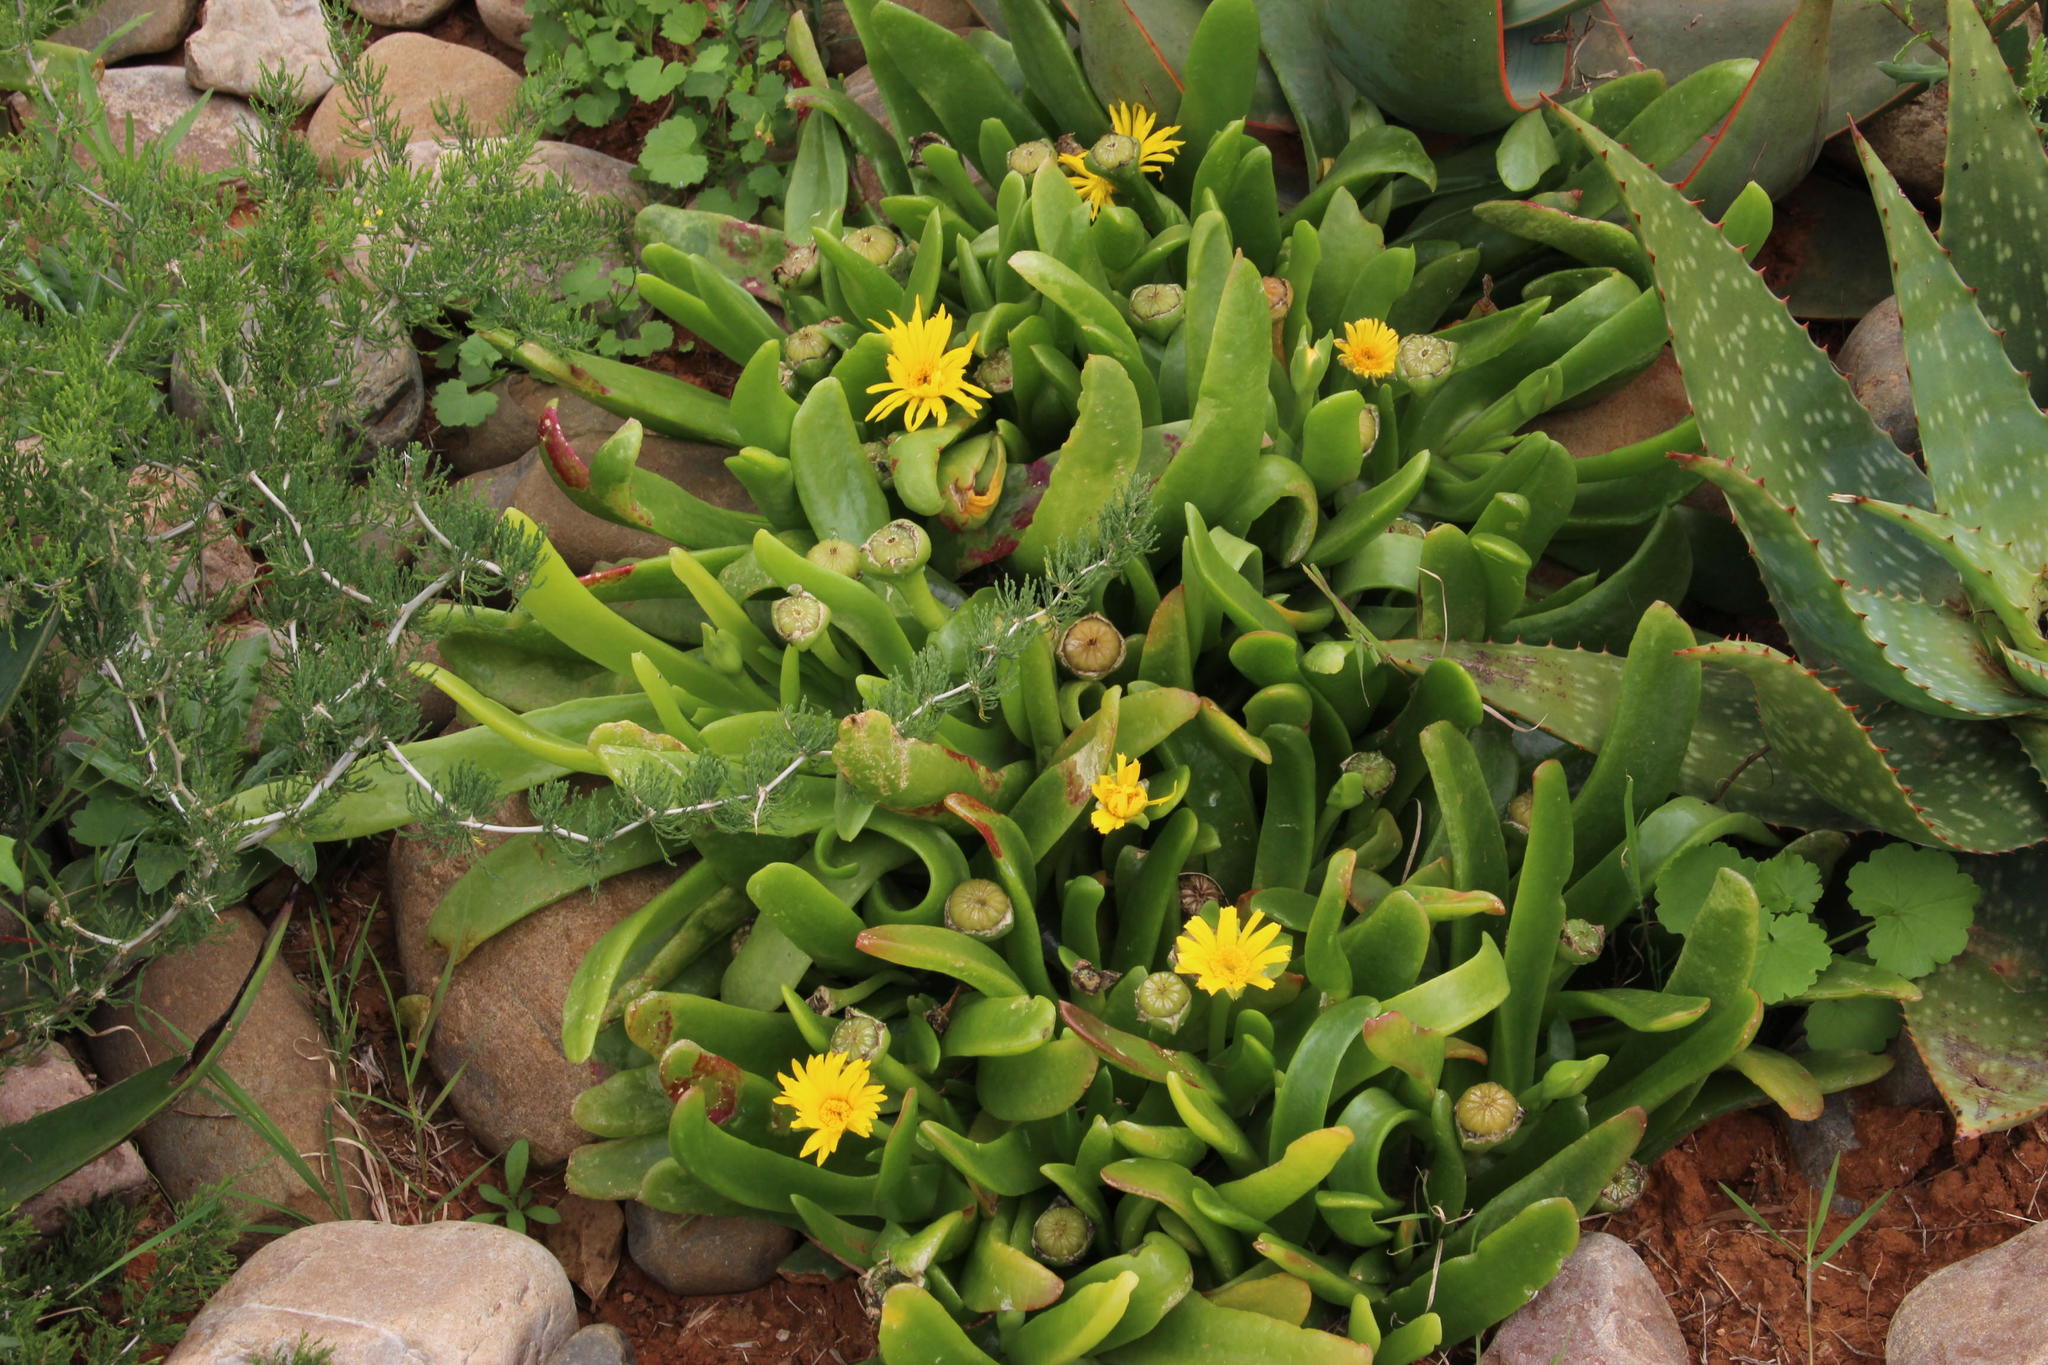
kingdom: Plantae
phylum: Tracheophyta
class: Magnoliopsida
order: Caryophyllales
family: Aizoaceae
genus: Glottiphyllum
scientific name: Glottiphyllum longum
